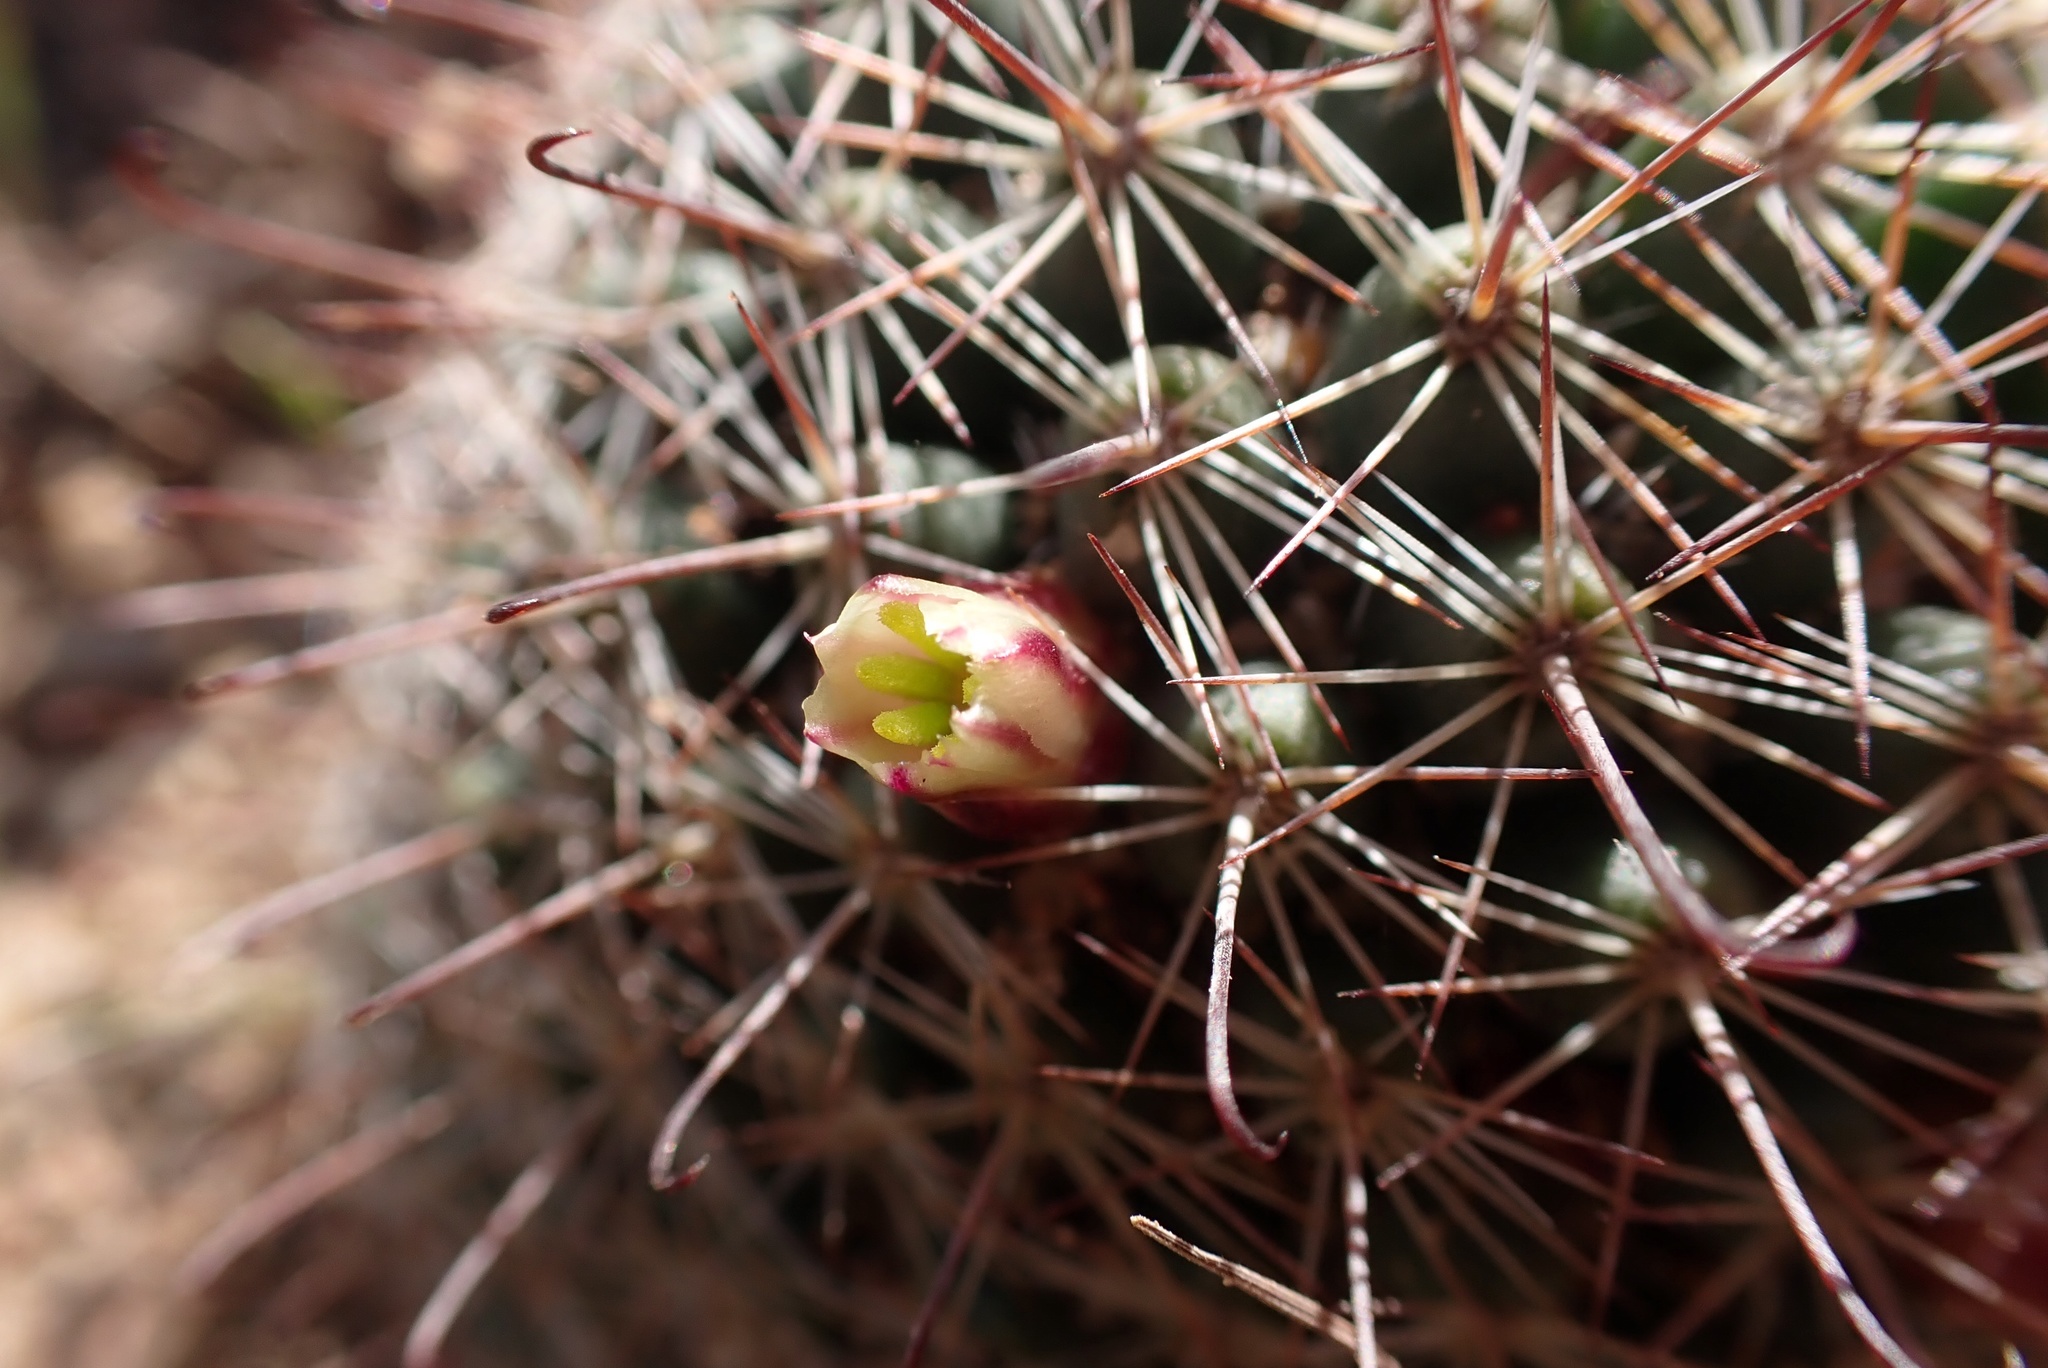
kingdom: Plantae
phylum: Tracheophyta
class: Magnoliopsida
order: Caryophyllales
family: Cactaceae
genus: Cochemiea
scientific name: Cochemiea dioica
